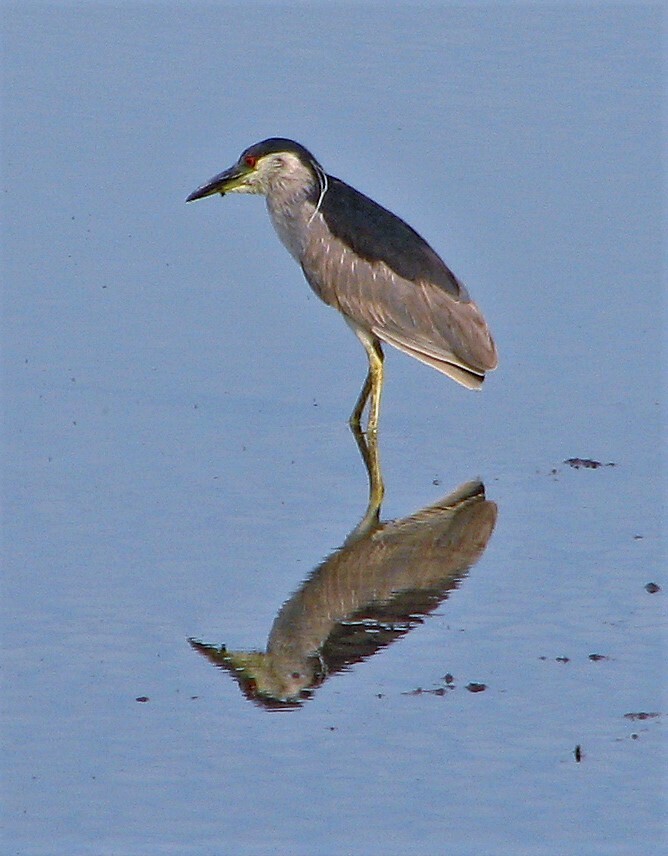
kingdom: Animalia
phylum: Chordata
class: Aves
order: Pelecaniformes
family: Ardeidae
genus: Nycticorax
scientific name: Nycticorax nycticorax
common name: Black-crowned night heron
